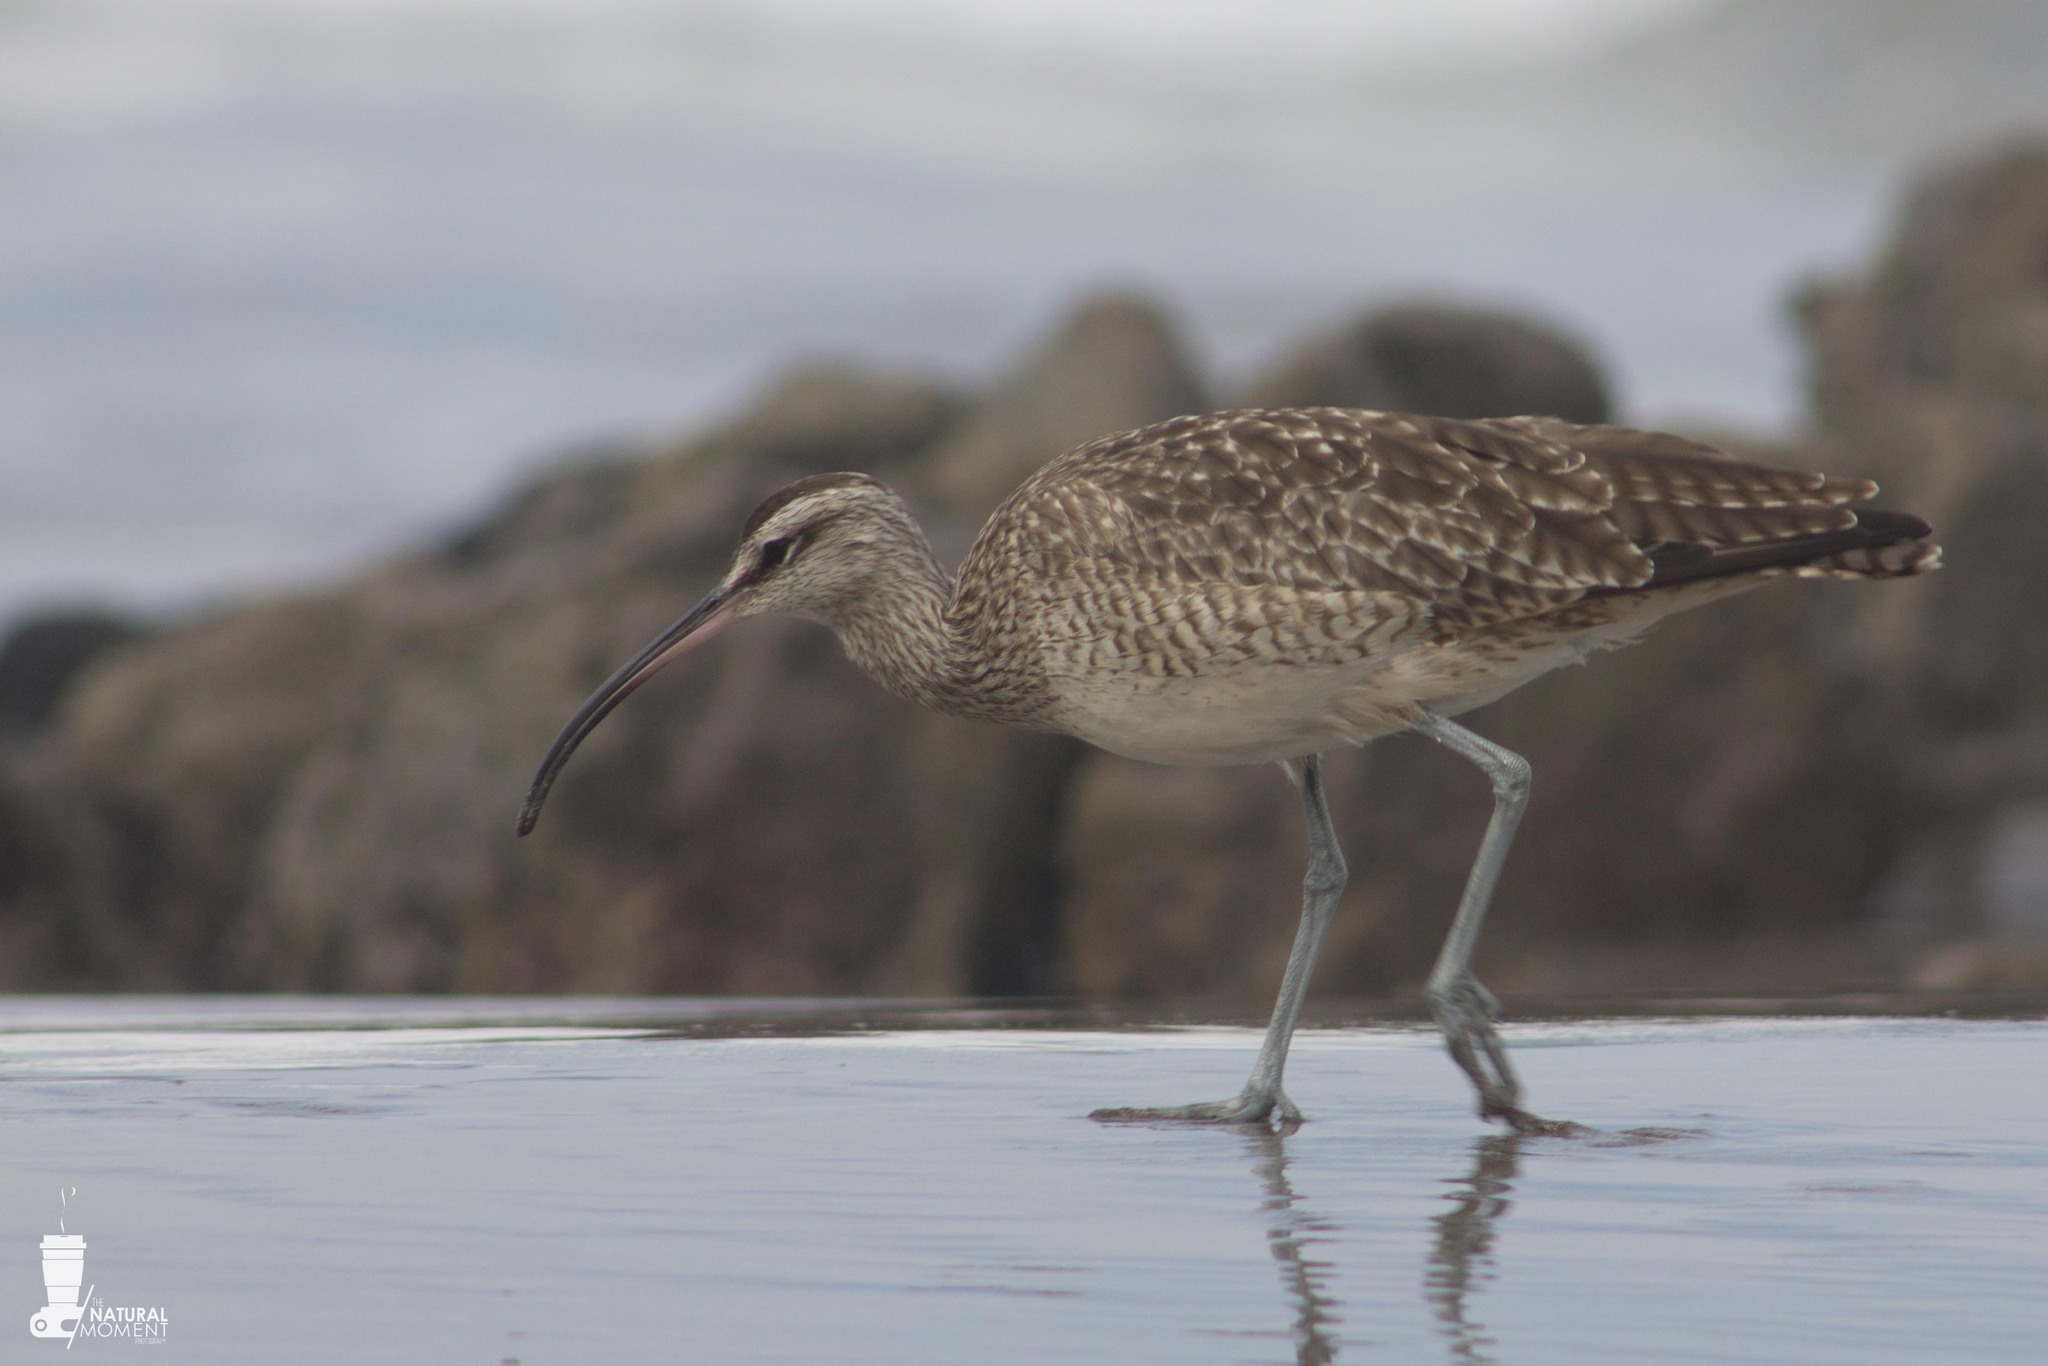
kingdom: Animalia
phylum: Chordata
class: Aves
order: Charadriiformes
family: Scolopacidae
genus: Numenius
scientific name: Numenius phaeopus
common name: Whimbrel
